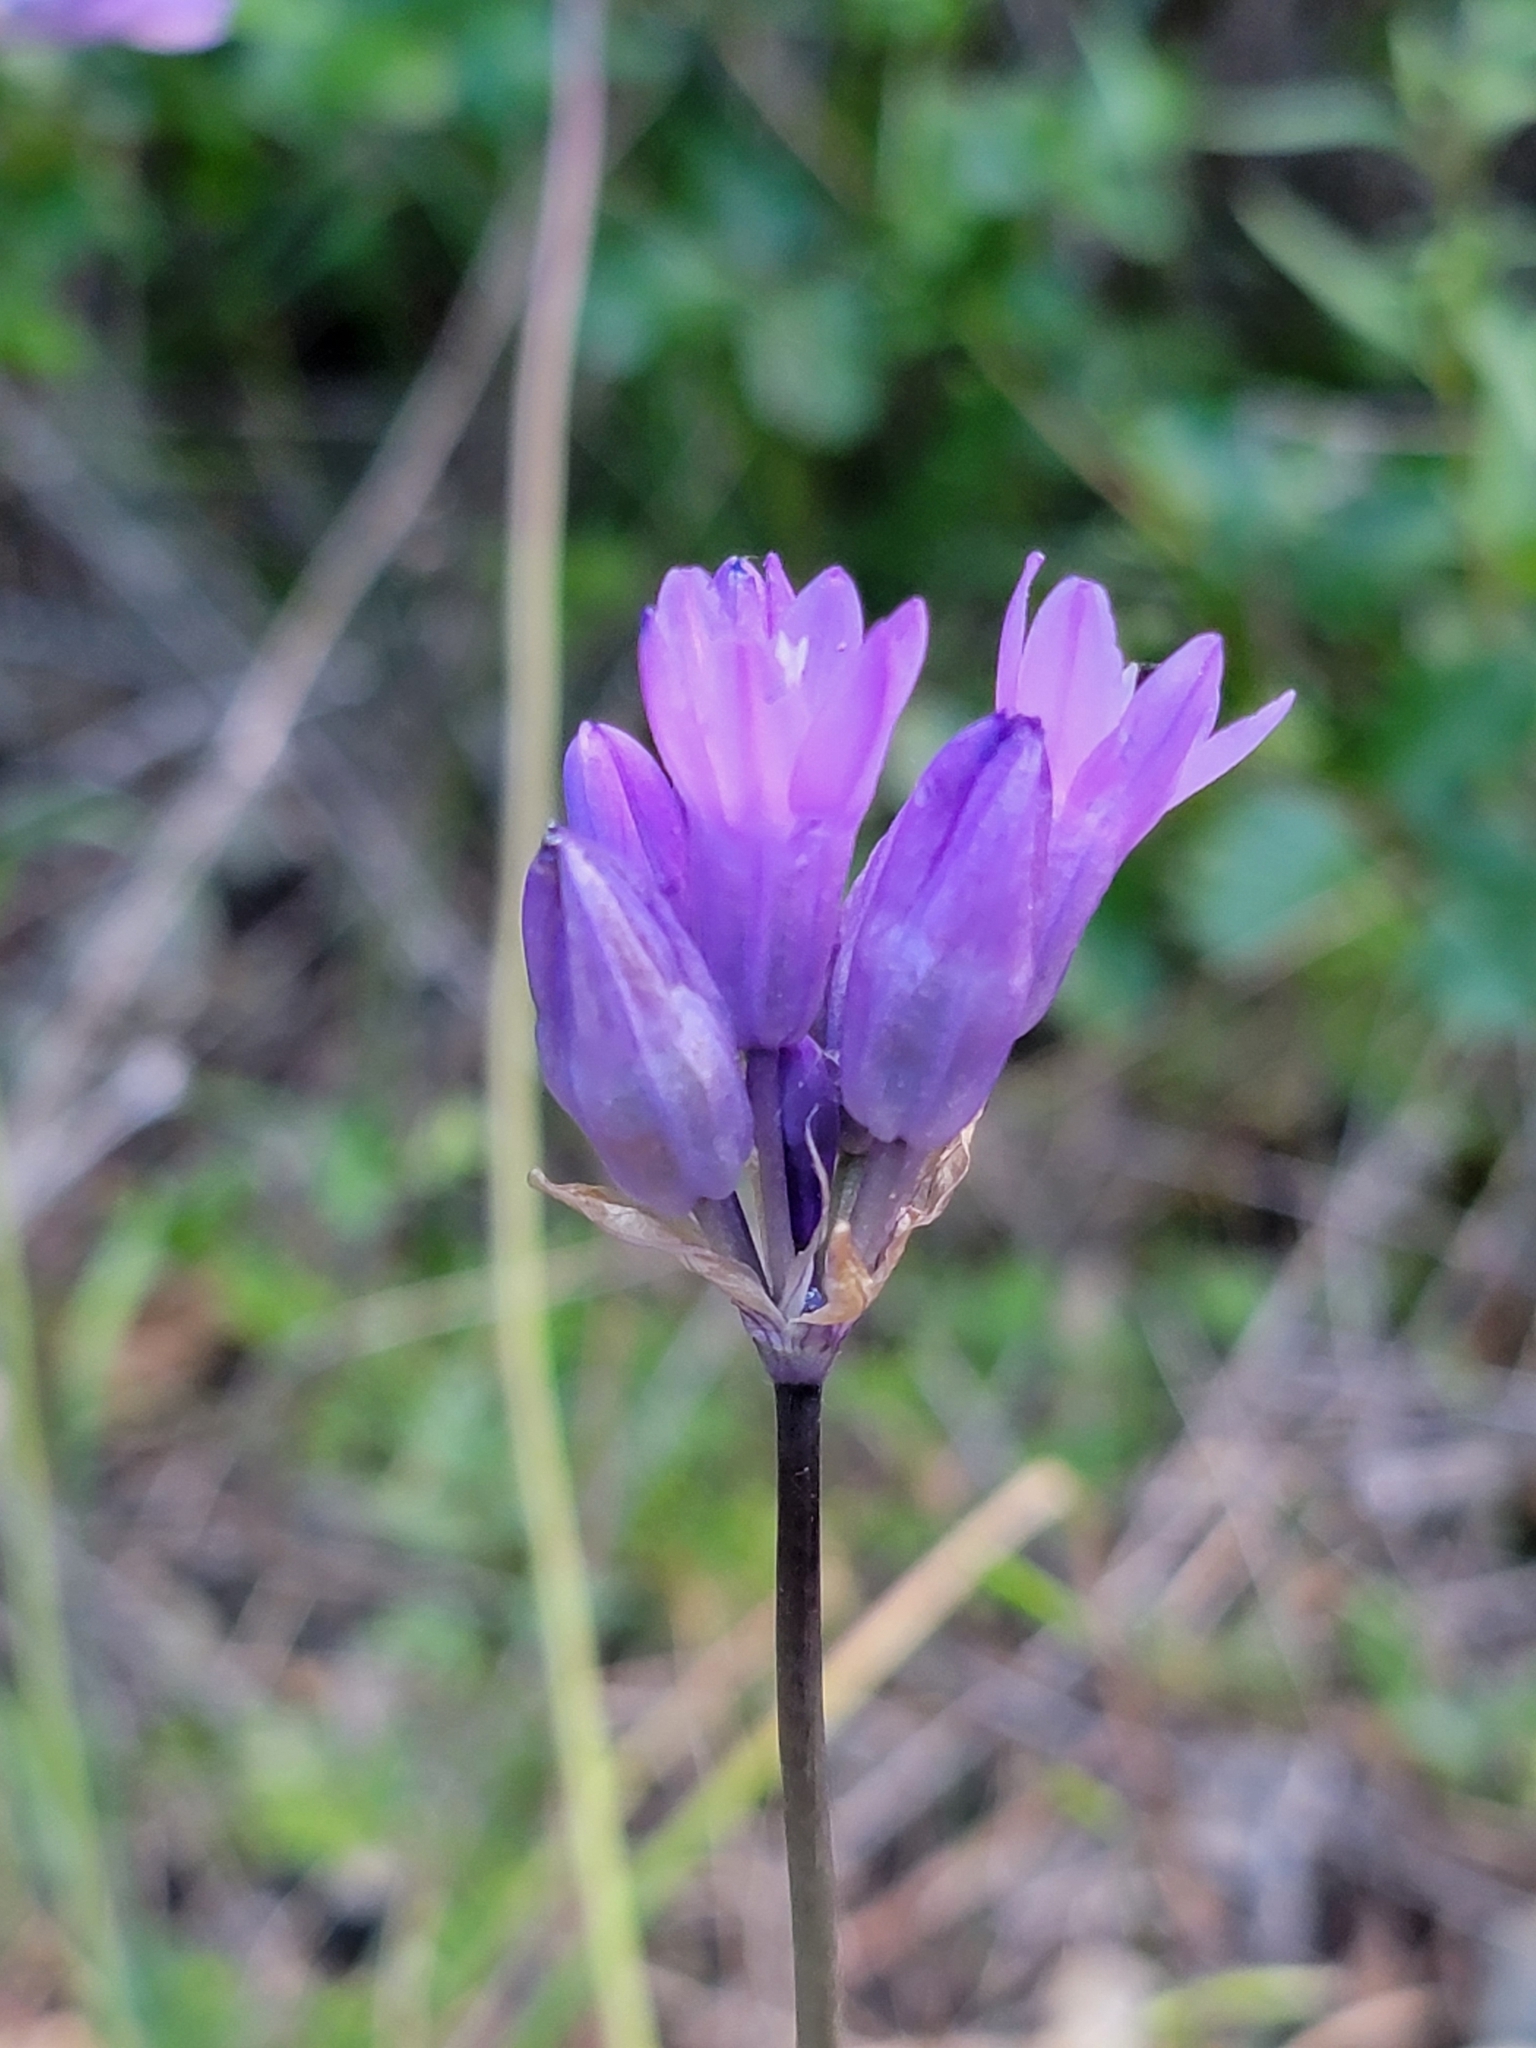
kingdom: Plantae
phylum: Tracheophyta
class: Liliopsida
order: Asparagales
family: Asparagaceae
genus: Dipterostemon
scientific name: Dipterostemon capitatus
